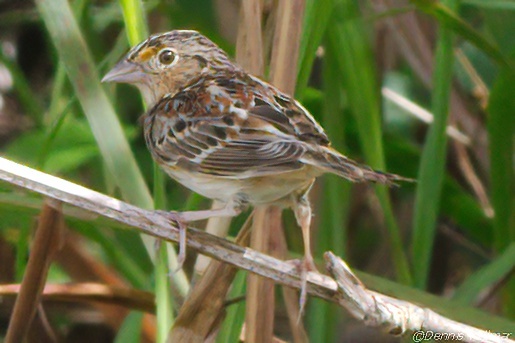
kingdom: Animalia
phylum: Chordata
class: Aves
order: Passeriformes
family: Passerellidae
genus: Ammodramus
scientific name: Ammodramus savannarum
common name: Grasshopper sparrow
